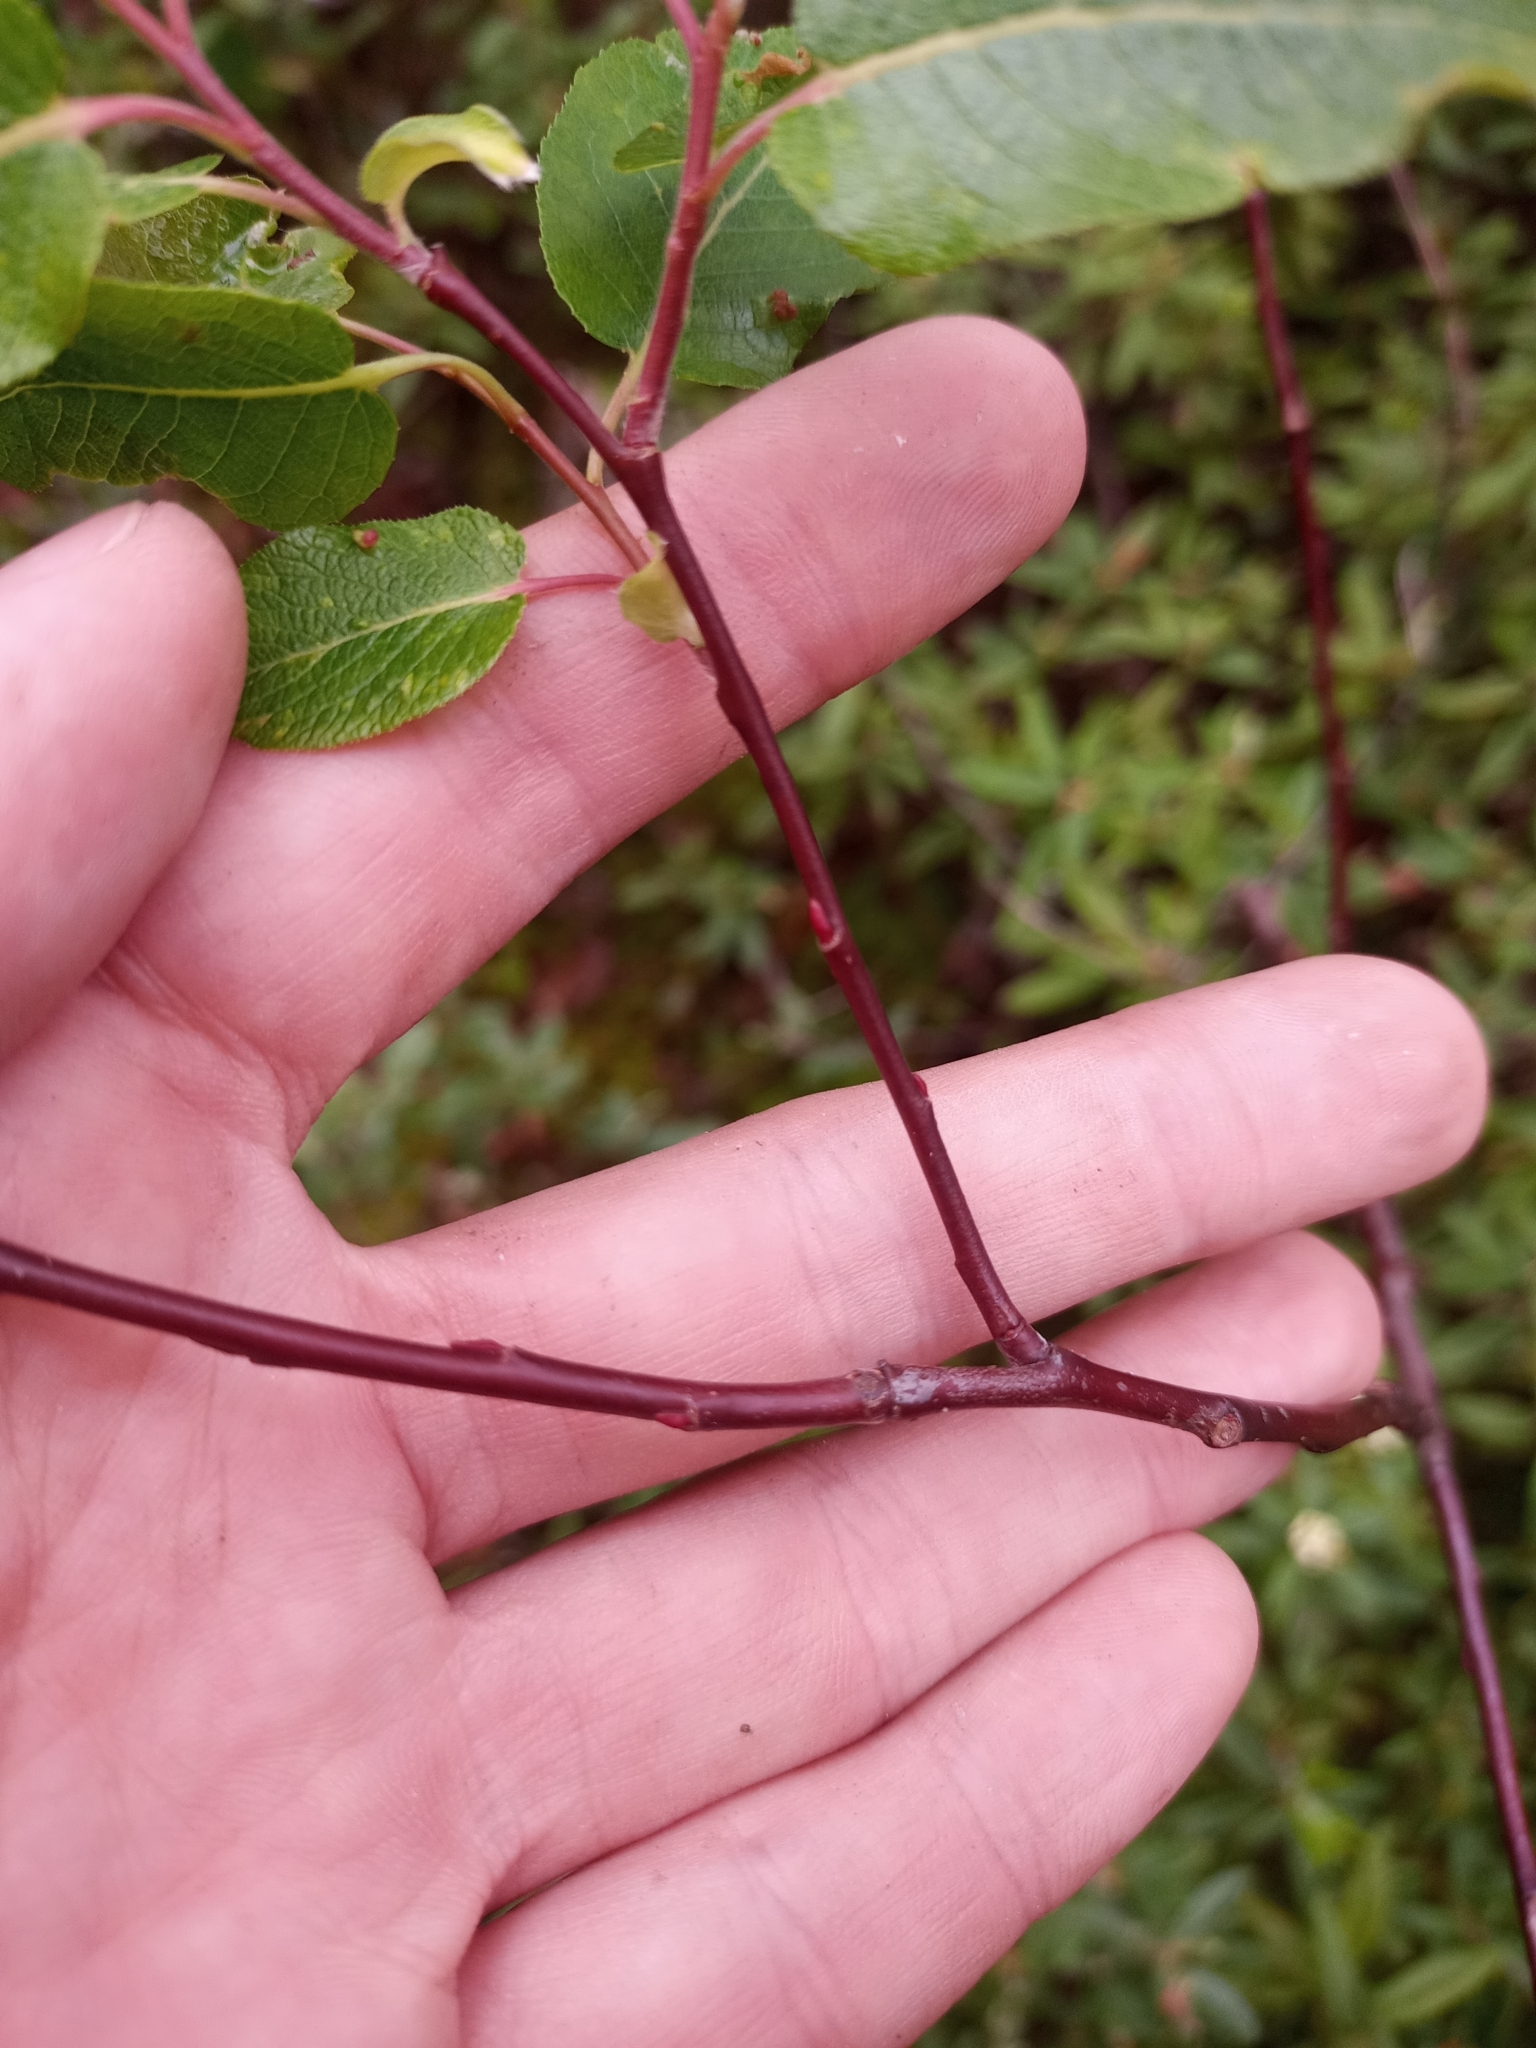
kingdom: Plantae
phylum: Tracheophyta
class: Magnoliopsida
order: Malpighiales
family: Salicaceae
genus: Salix
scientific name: Salix pyrifolia
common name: Balsam willow
